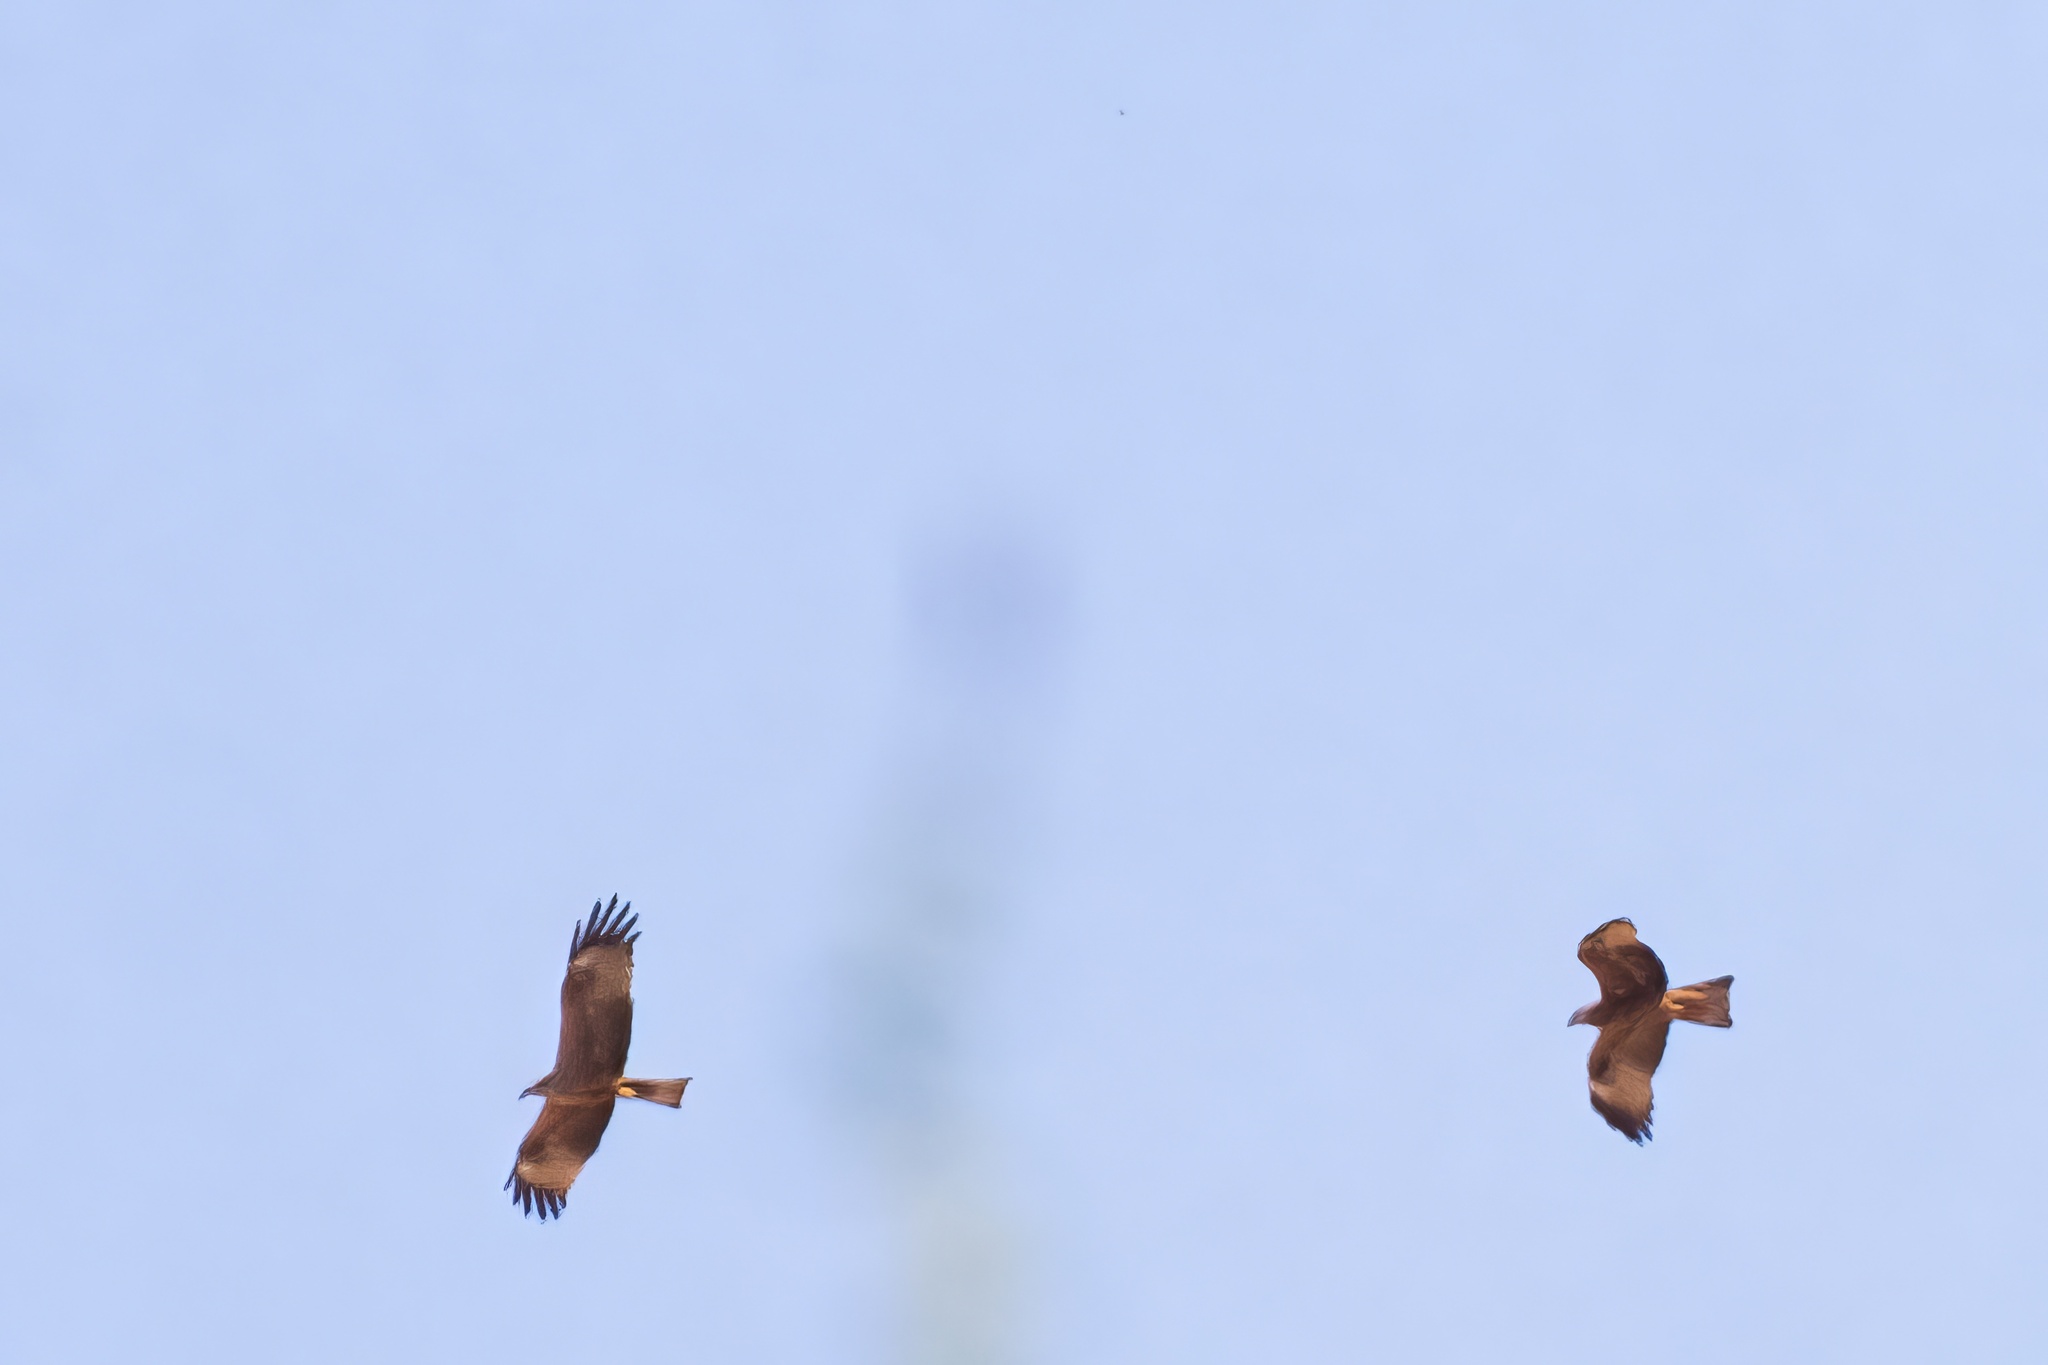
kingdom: Animalia
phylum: Chordata
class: Aves
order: Accipitriformes
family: Accipitridae
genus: Milvus
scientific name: Milvus migrans
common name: Black kite
